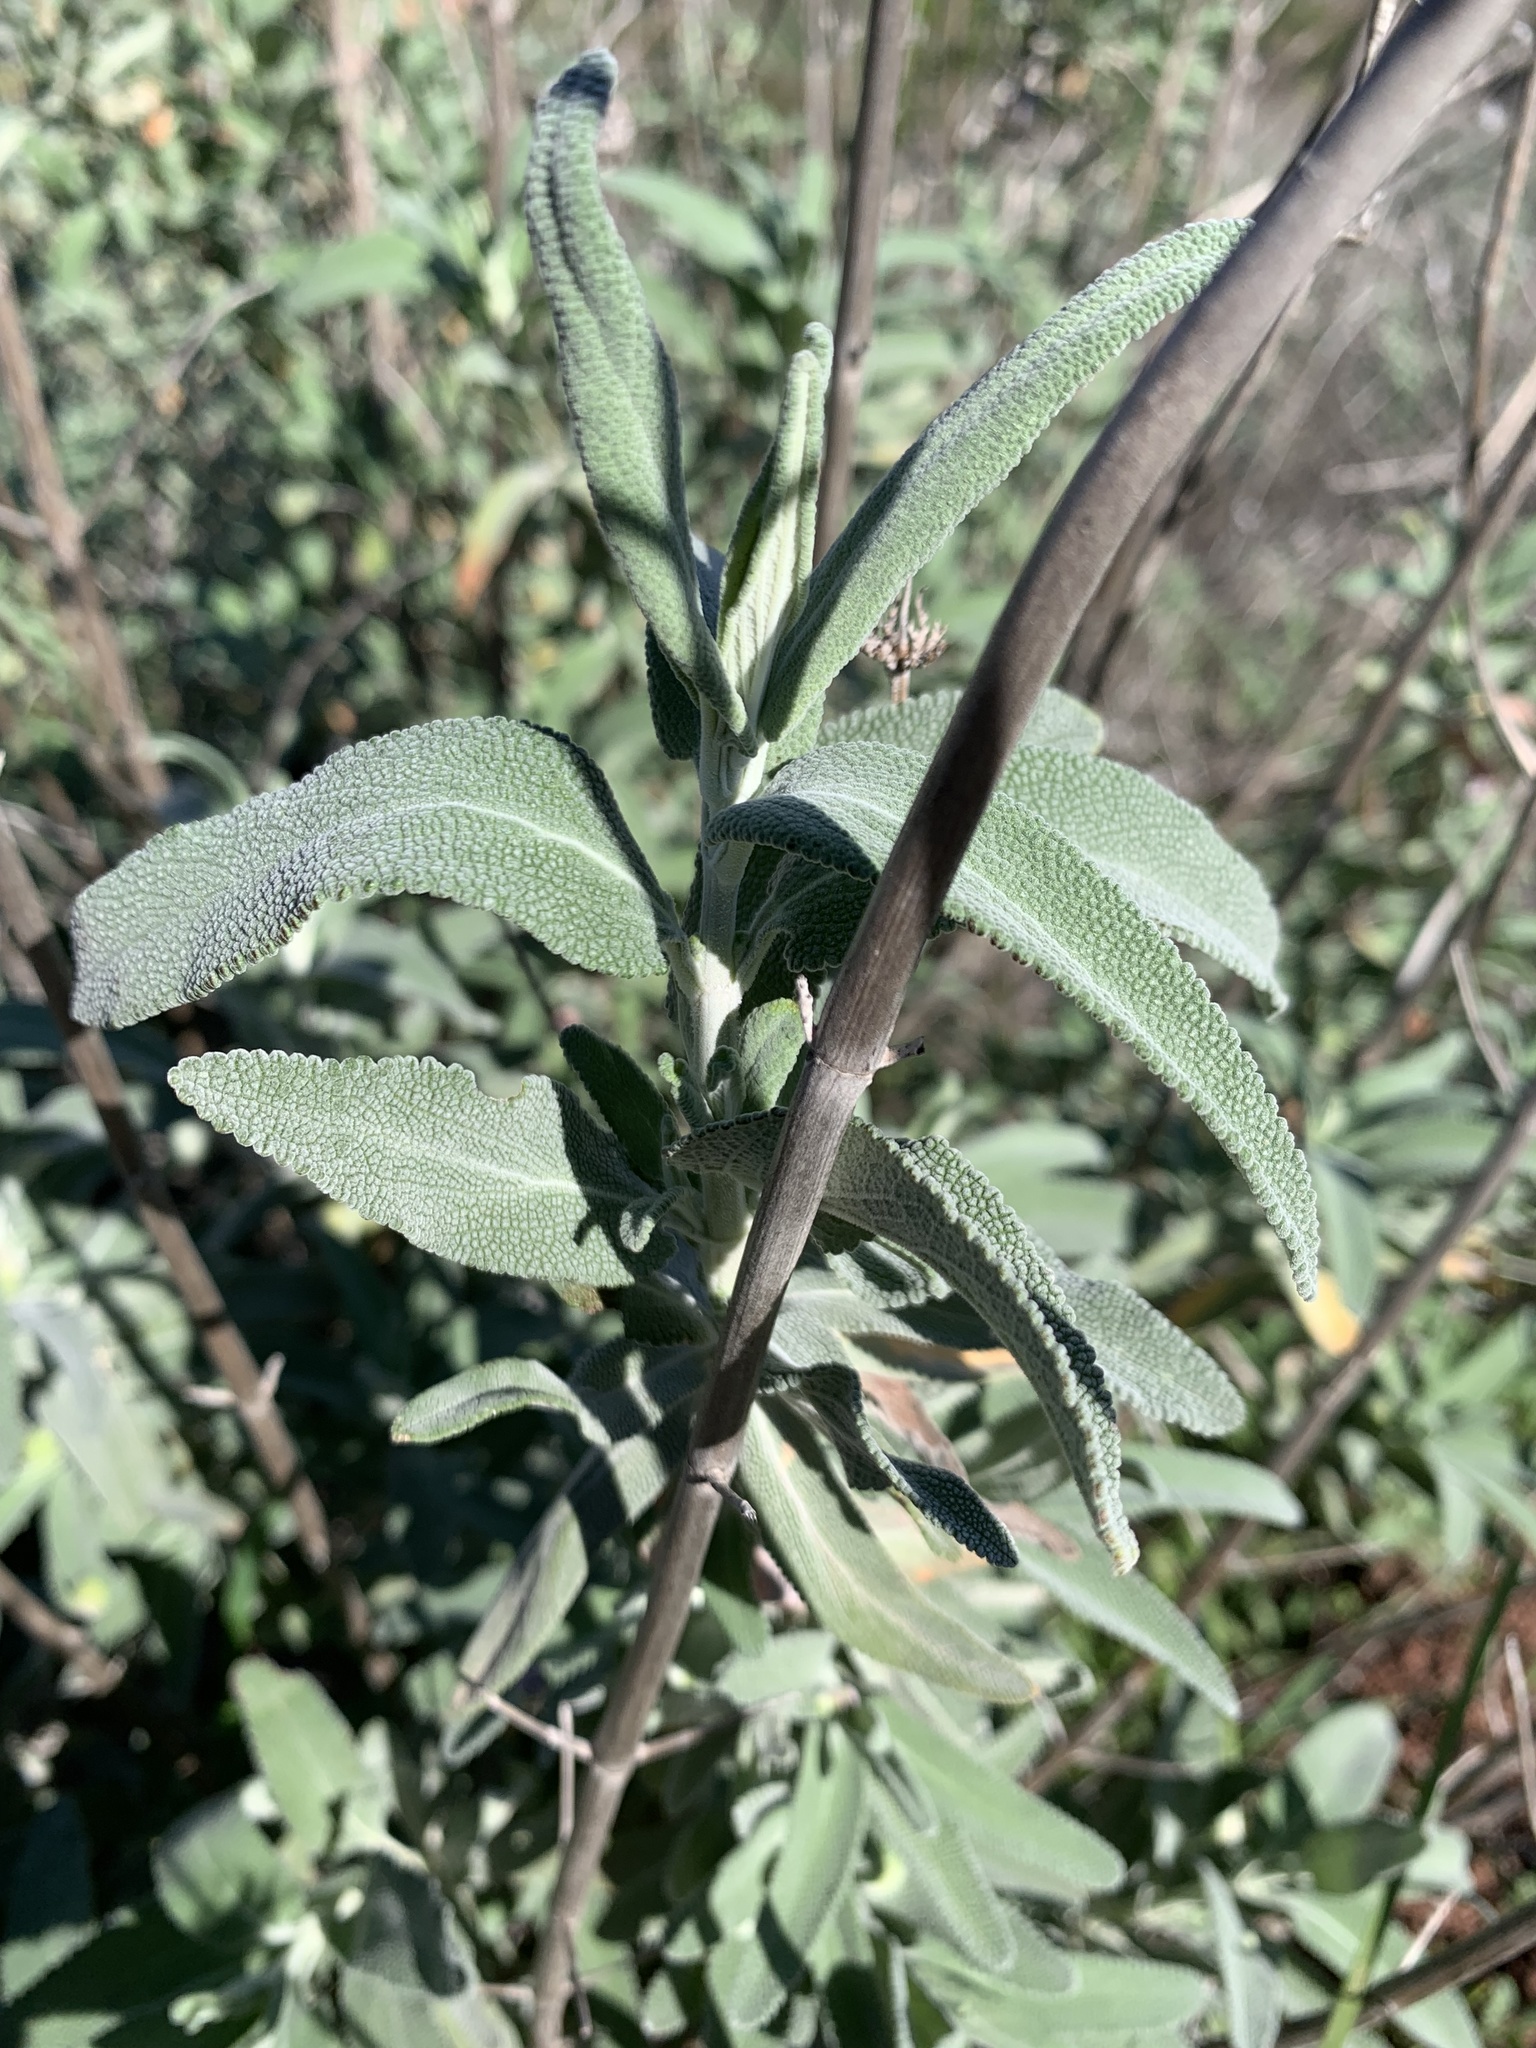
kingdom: Plantae
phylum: Tracheophyta
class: Magnoliopsida
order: Lamiales
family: Lamiaceae
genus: Salvia
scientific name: Salvia leucophylla
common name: Purple sage
